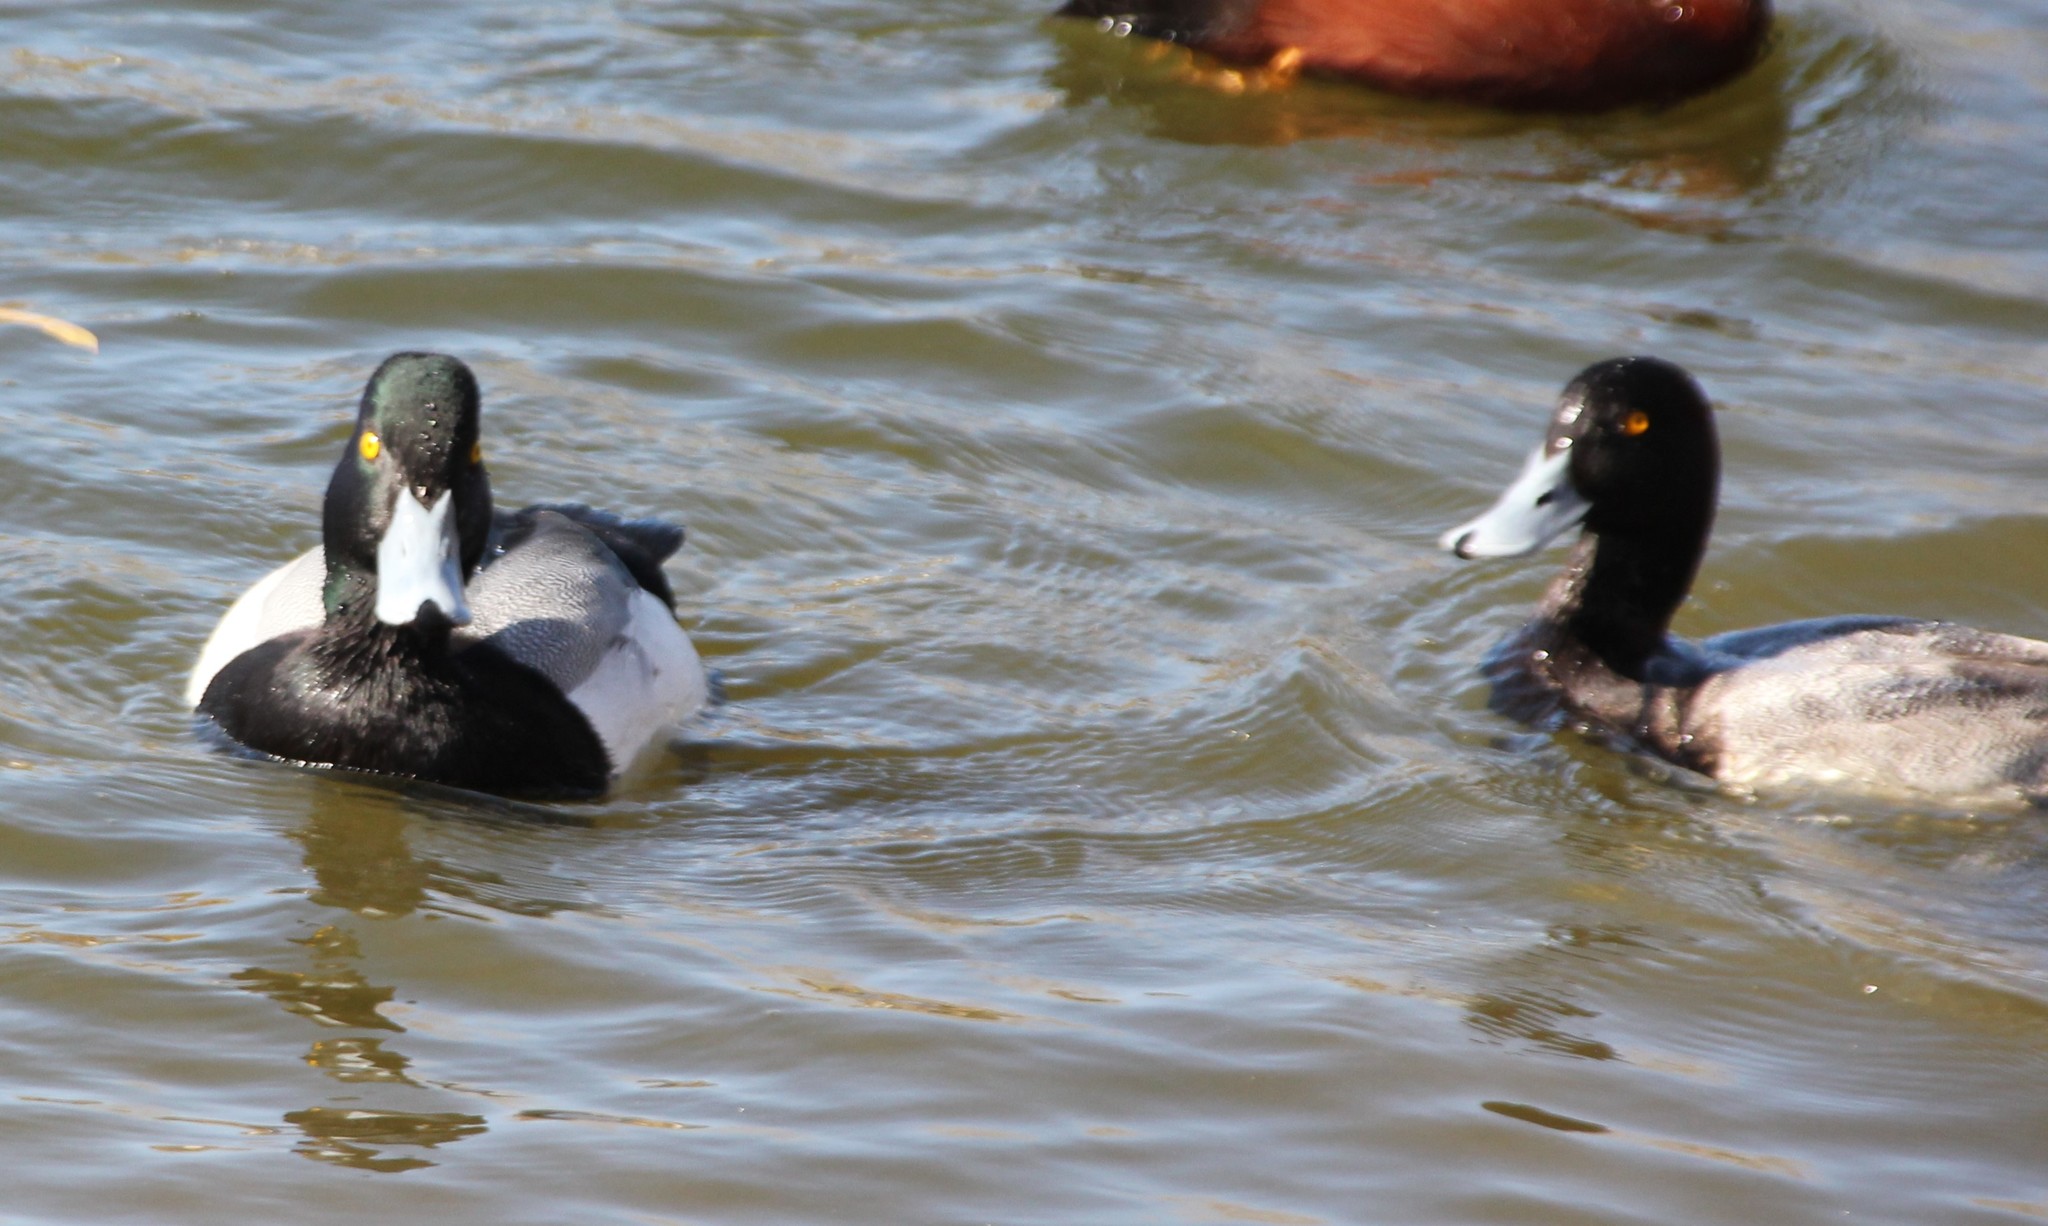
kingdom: Animalia
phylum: Chordata
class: Aves
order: Anseriformes
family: Anatidae
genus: Aythya
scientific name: Aythya marila
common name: Greater scaup
